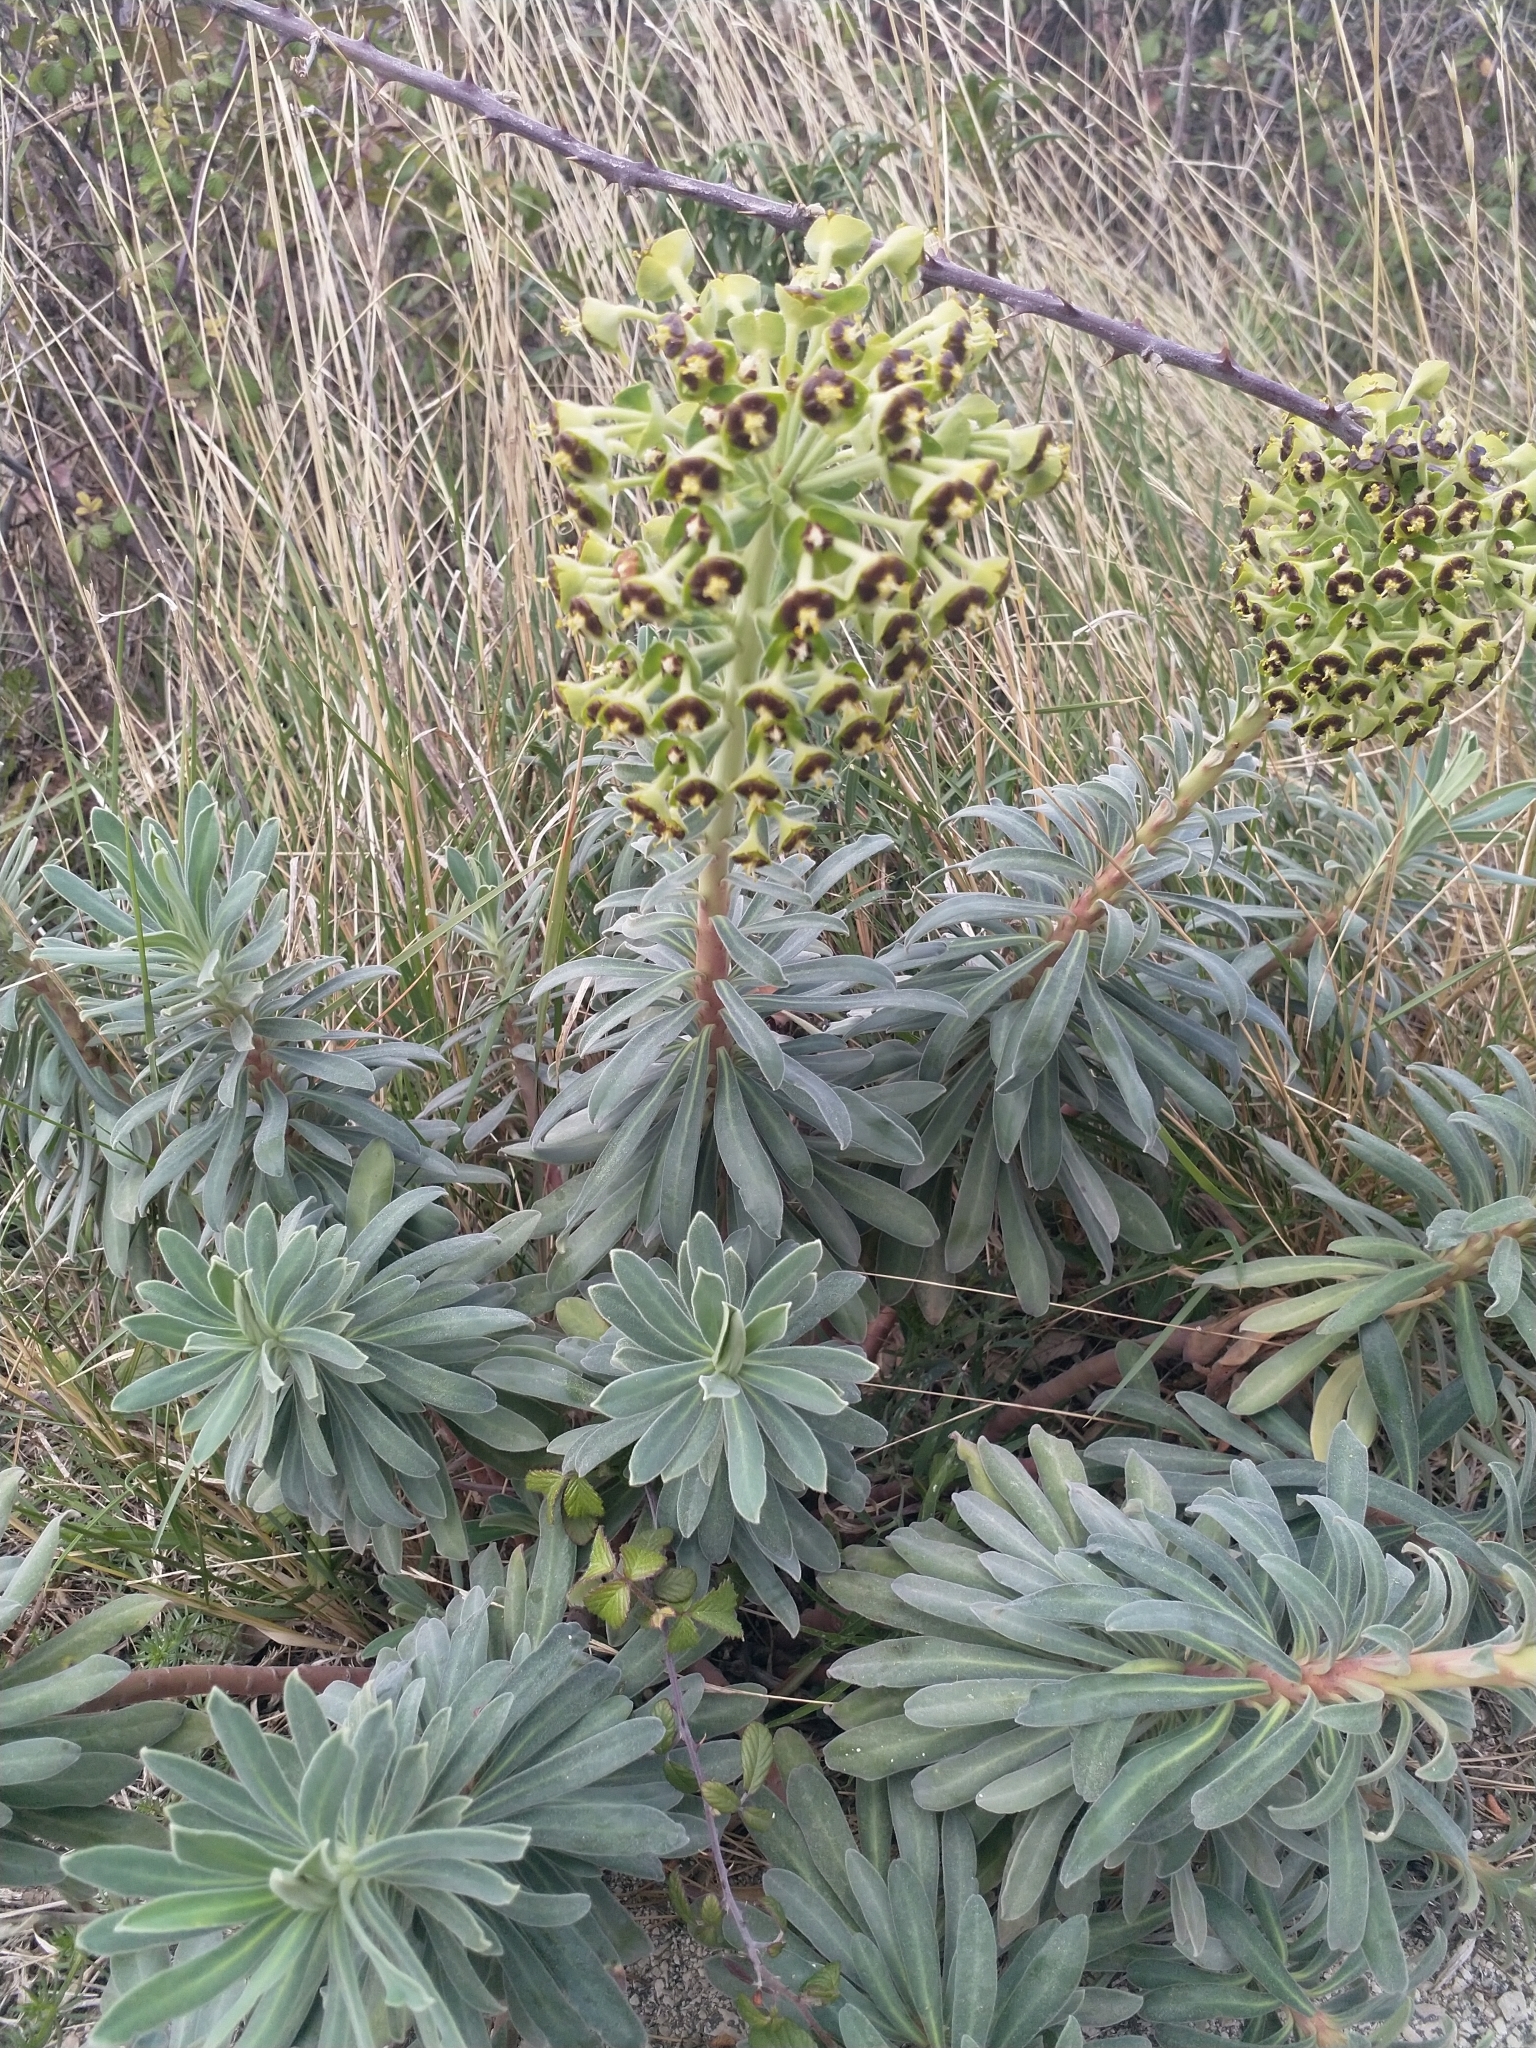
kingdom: Plantae
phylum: Tracheophyta
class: Magnoliopsida
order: Malpighiales
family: Euphorbiaceae
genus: Euphorbia
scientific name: Euphorbia characias
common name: Mediterranean spurge
